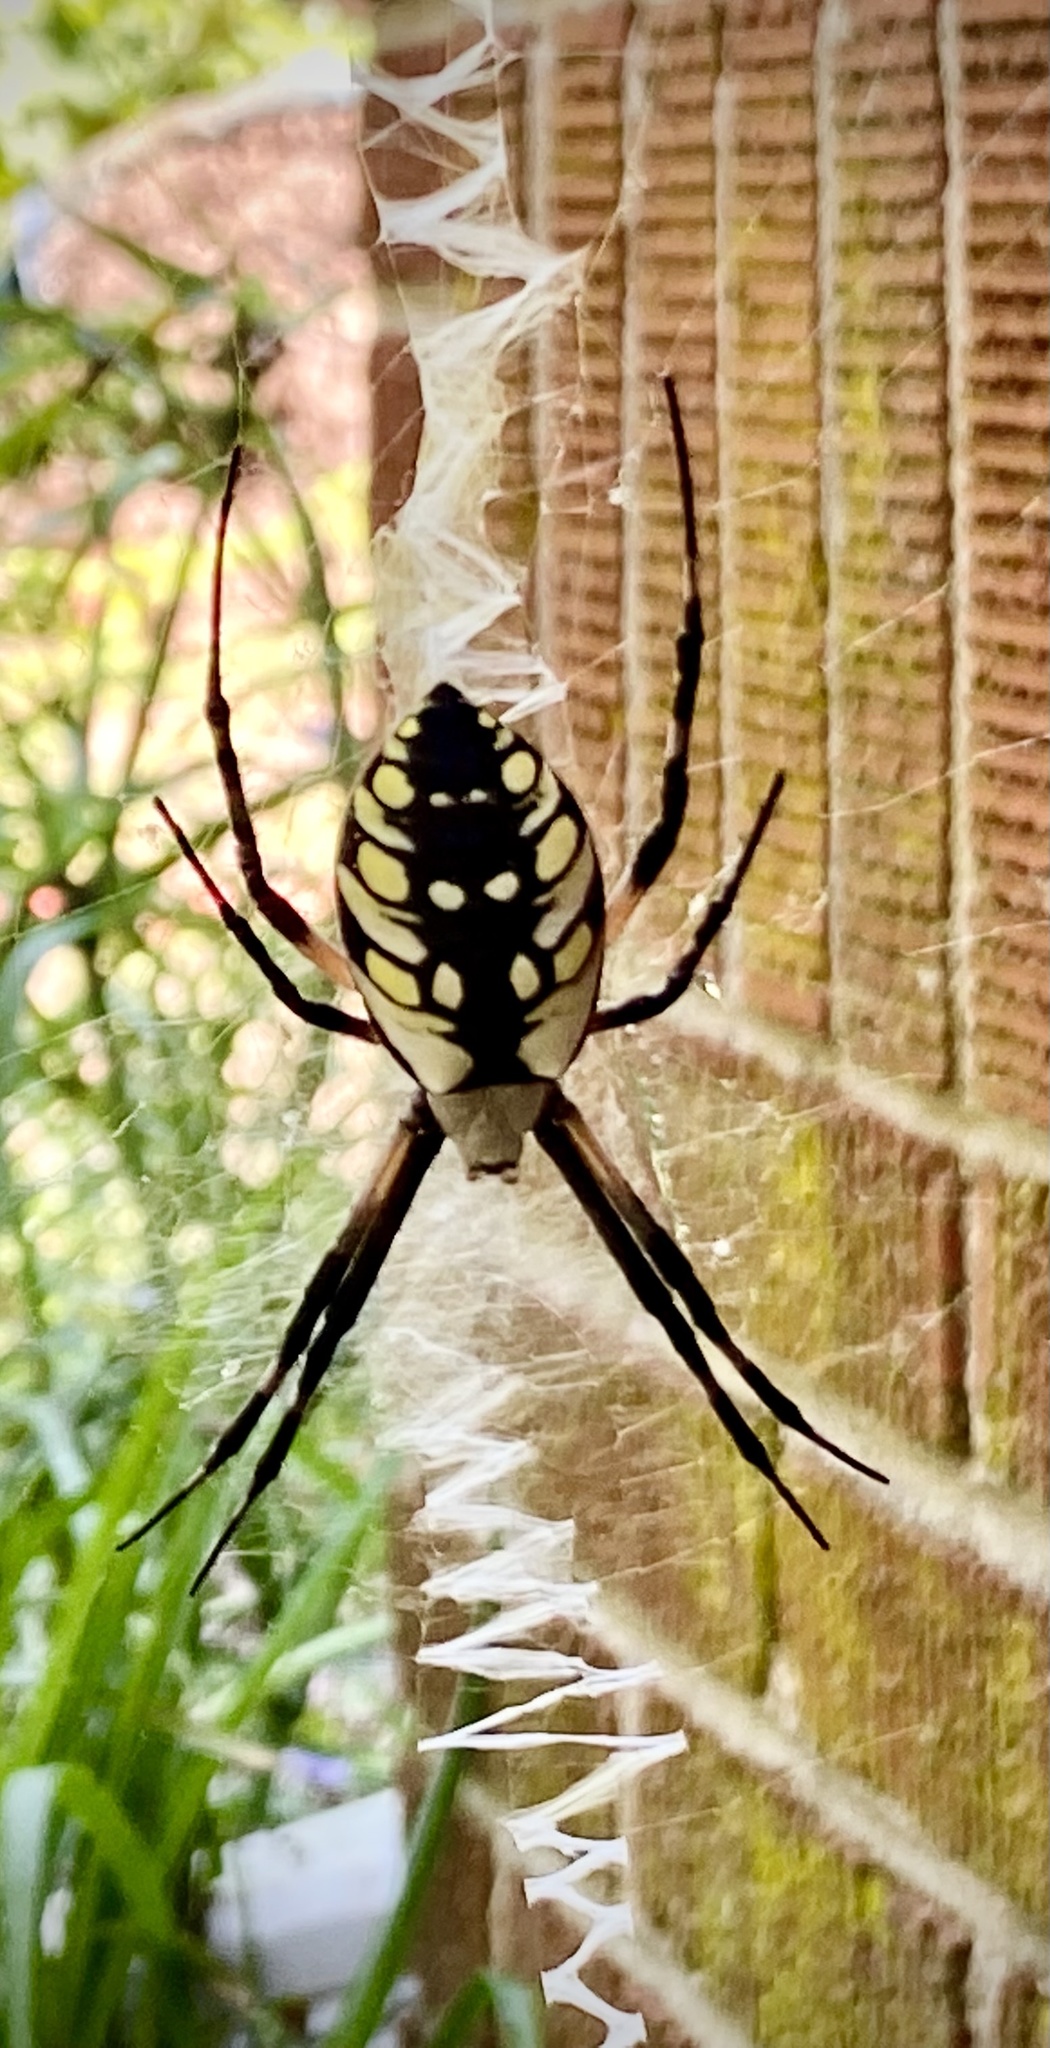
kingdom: Animalia
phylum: Arthropoda
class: Arachnida
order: Araneae
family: Araneidae
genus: Argiope
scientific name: Argiope aurantia
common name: Orb weavers
